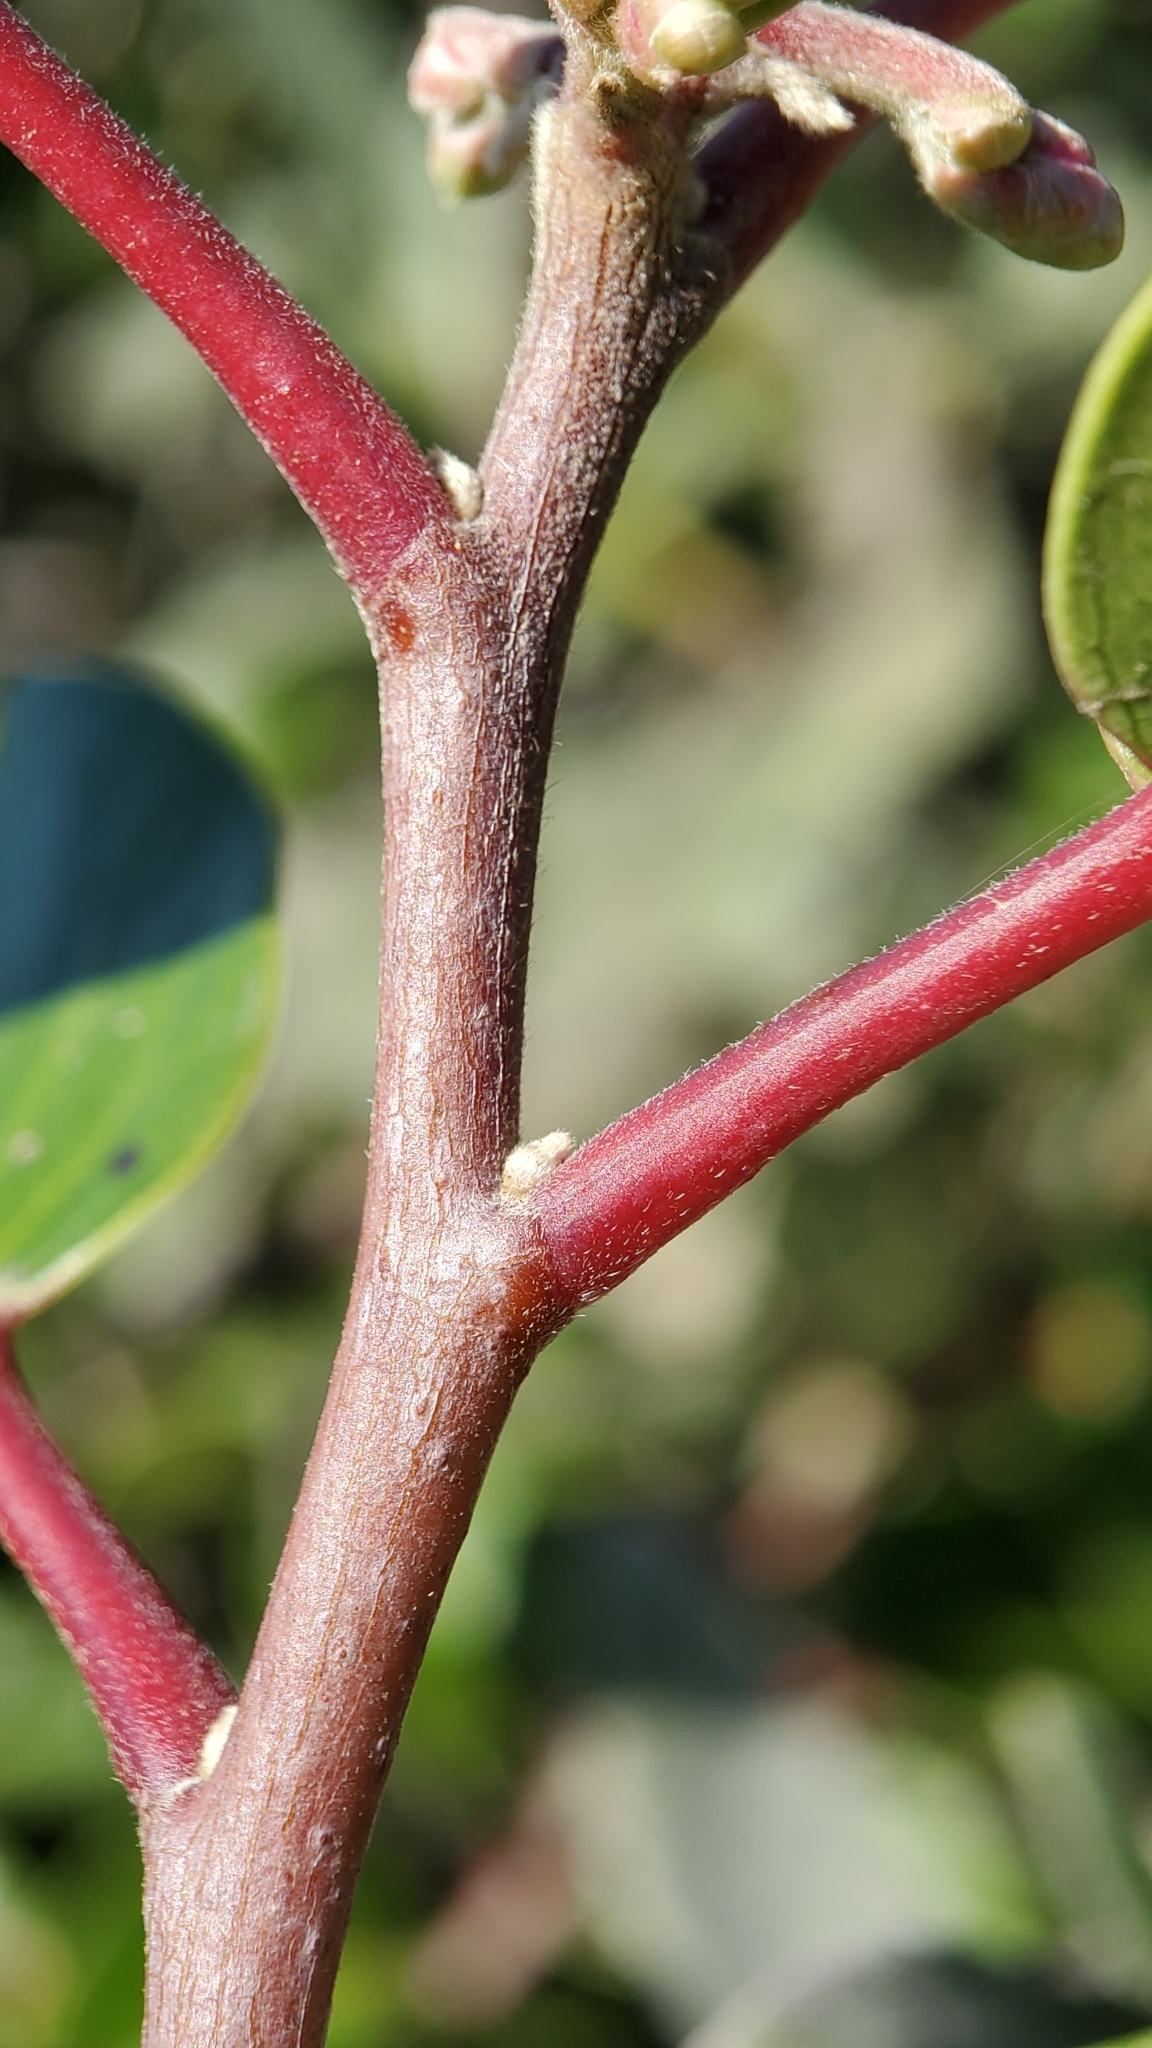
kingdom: Plantae
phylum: Tracheophyta
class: Magnoliopsida
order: Sapindales
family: Anacardiaceae
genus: Rhus
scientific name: Rhus ovata
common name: Sugar sumac
